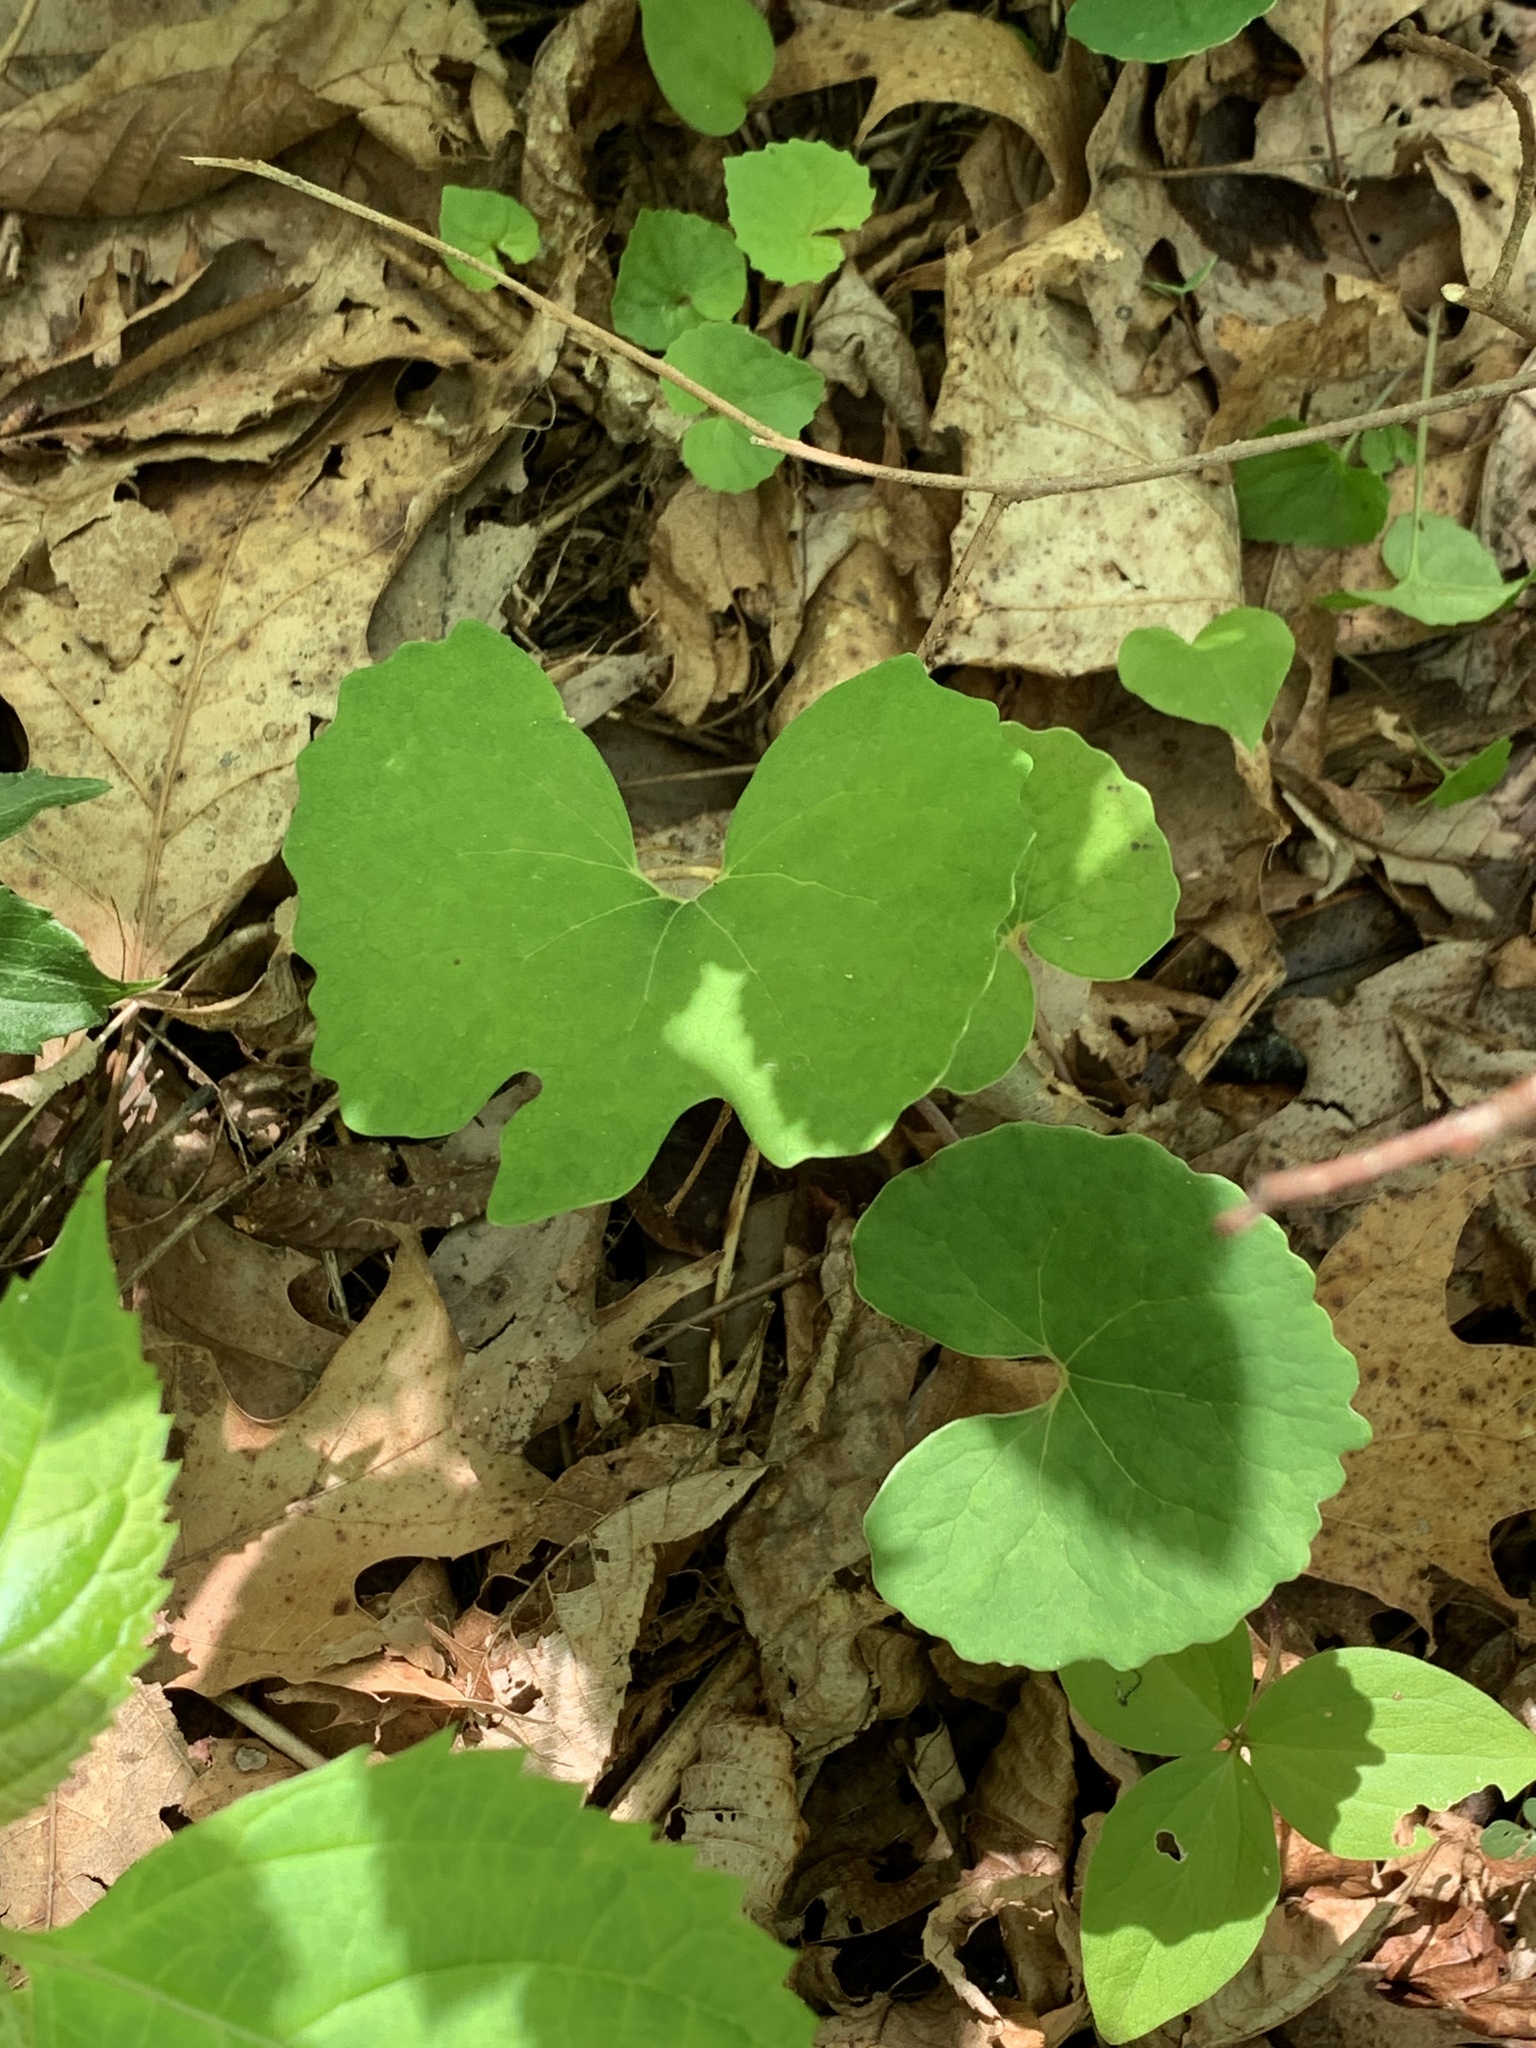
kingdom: Plantae
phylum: Tracheophyta
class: Magnoliopsida
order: Ranunculales
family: Papaveraceae
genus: Sanguinaria
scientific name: Sanguinaria canadensis
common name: Bloodroot
